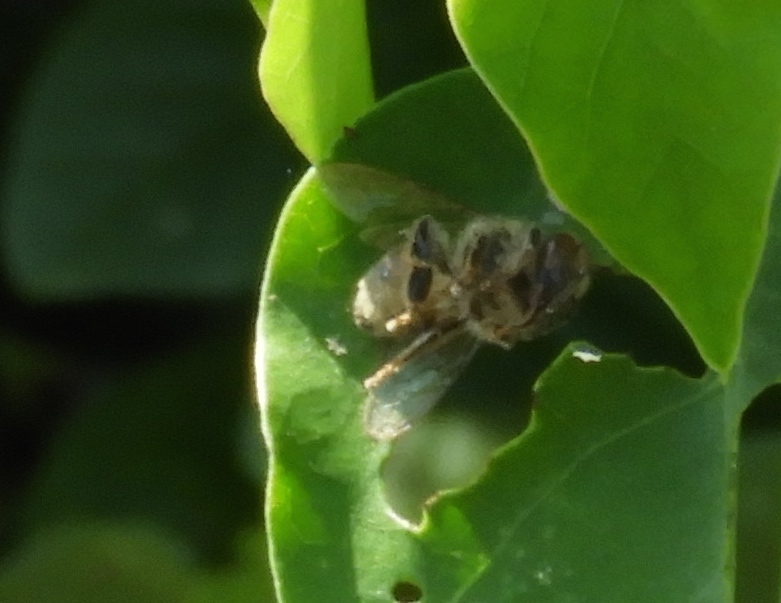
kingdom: Animalia
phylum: Arthropoda
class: Insecta
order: Hymenoptera
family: Apidae
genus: Apis
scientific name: Apis mellifera
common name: Honey bee
